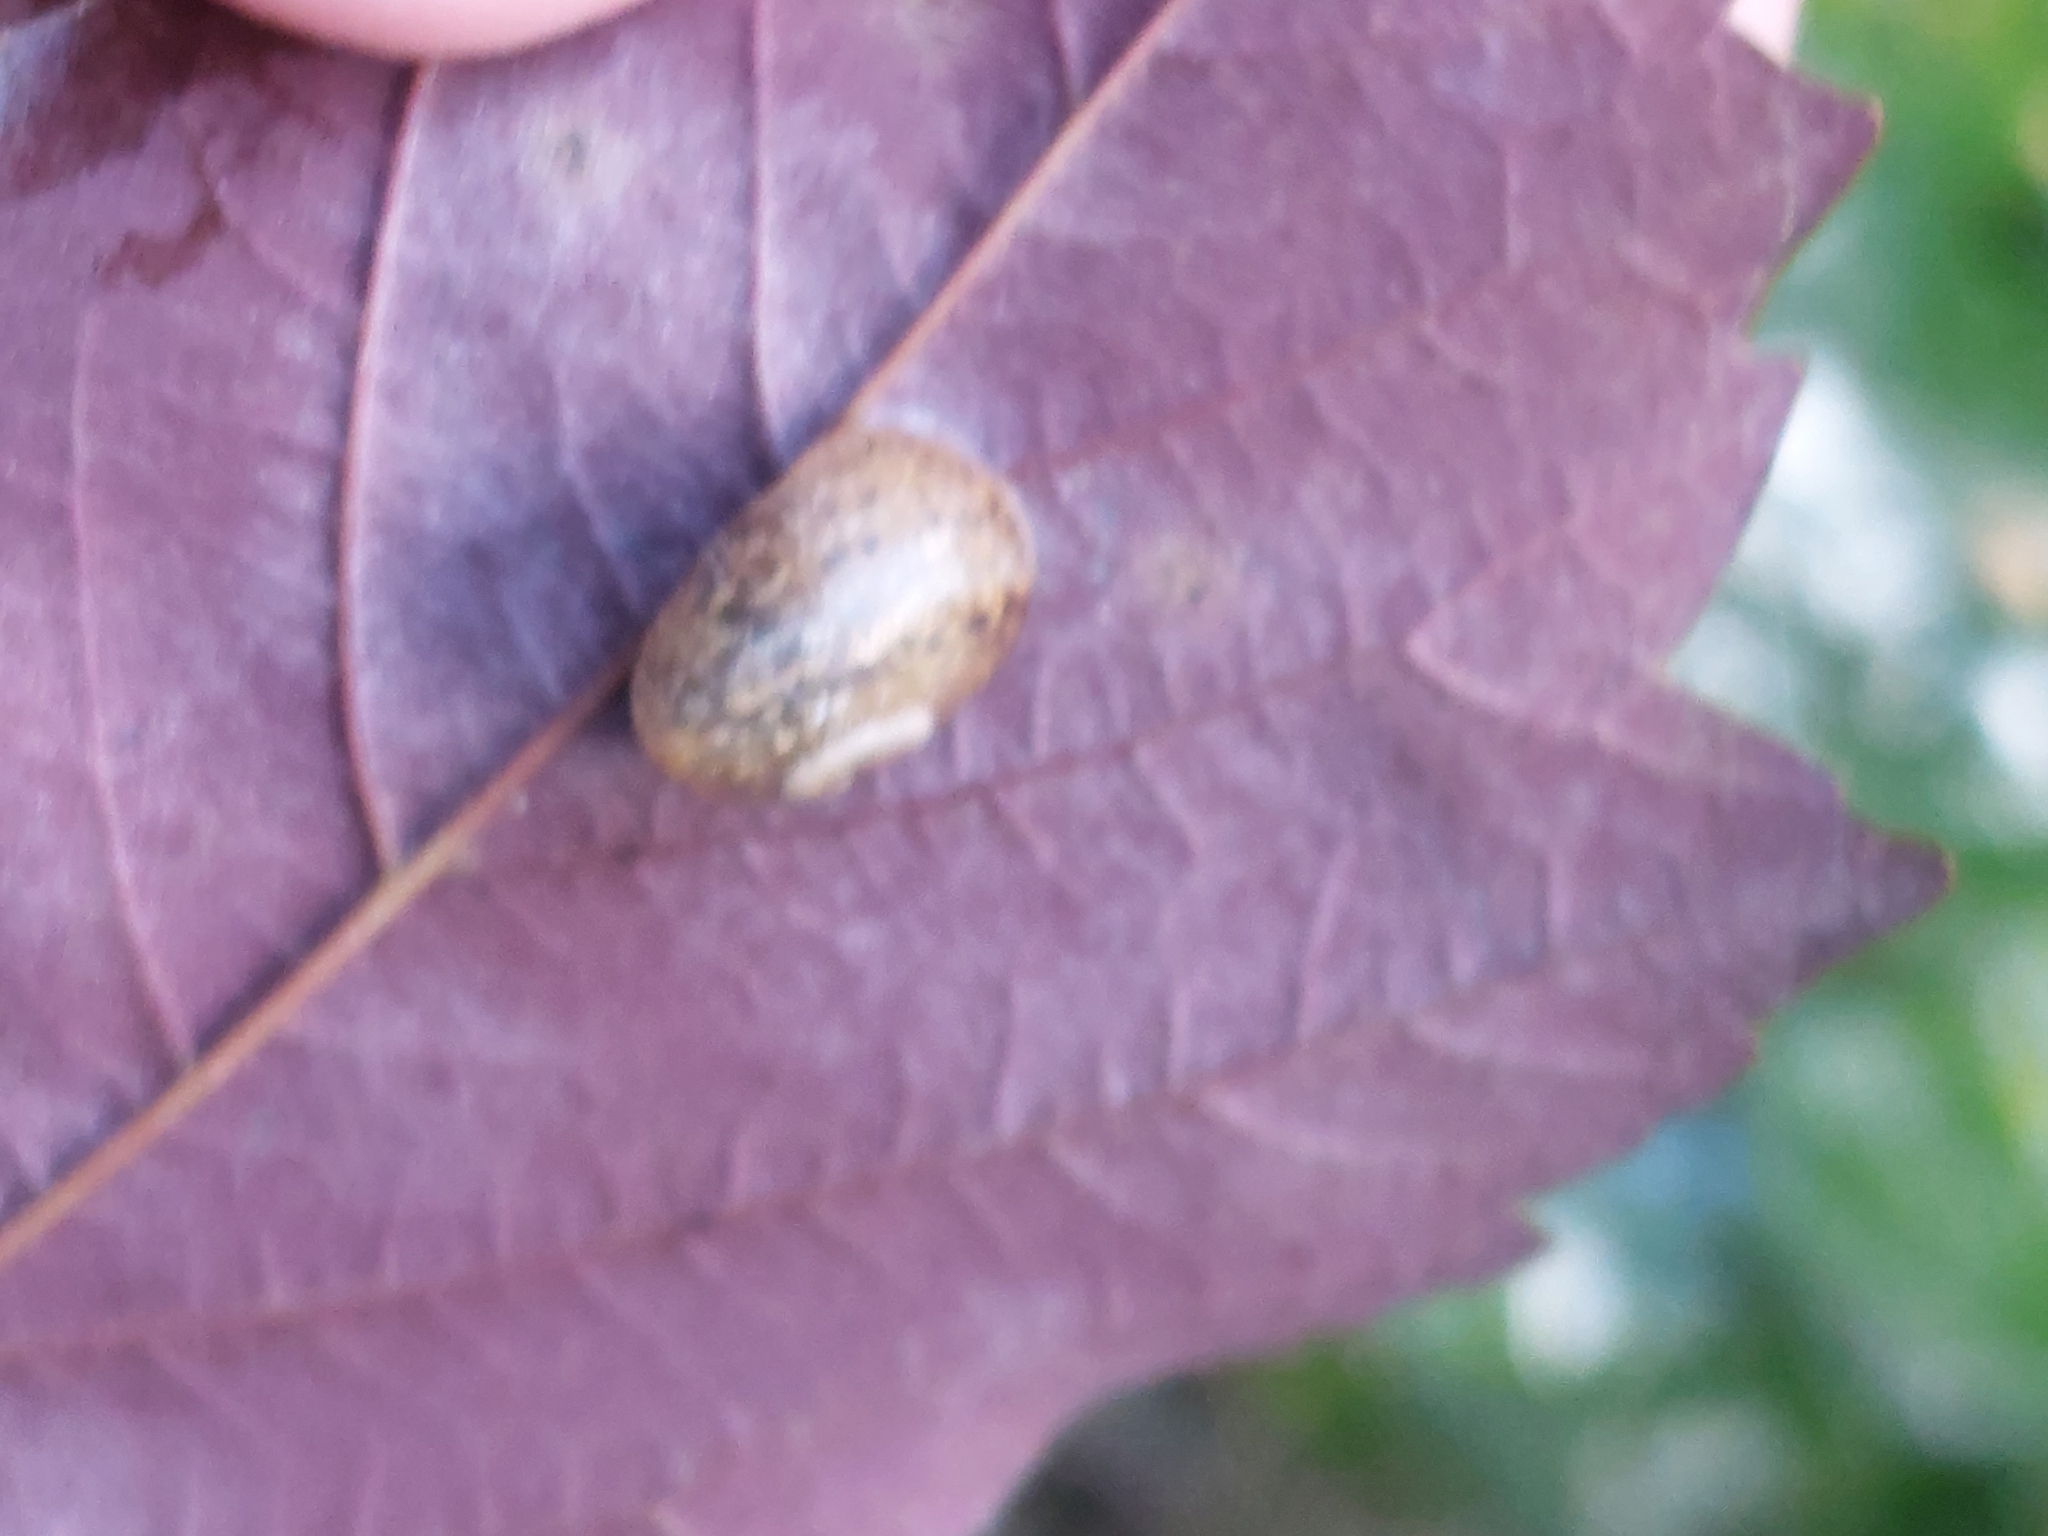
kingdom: Animalia
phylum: Mollusca
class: Gastropoda
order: Stylommatophora
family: Helicidae
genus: Helix
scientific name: Helix pomatia
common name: Roman snail
